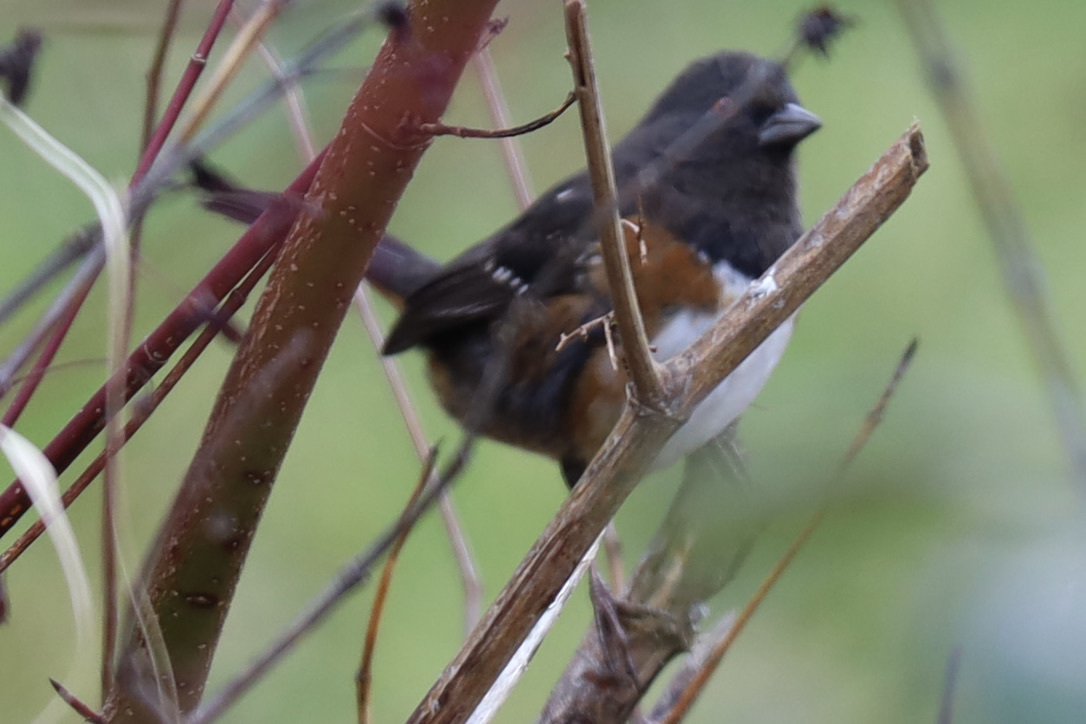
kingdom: Animalia
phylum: Chordata
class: Aves
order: Passeriformes
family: Passerellidae
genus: Pipilo
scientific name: Pipilo maculatus
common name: Spotted towhee
